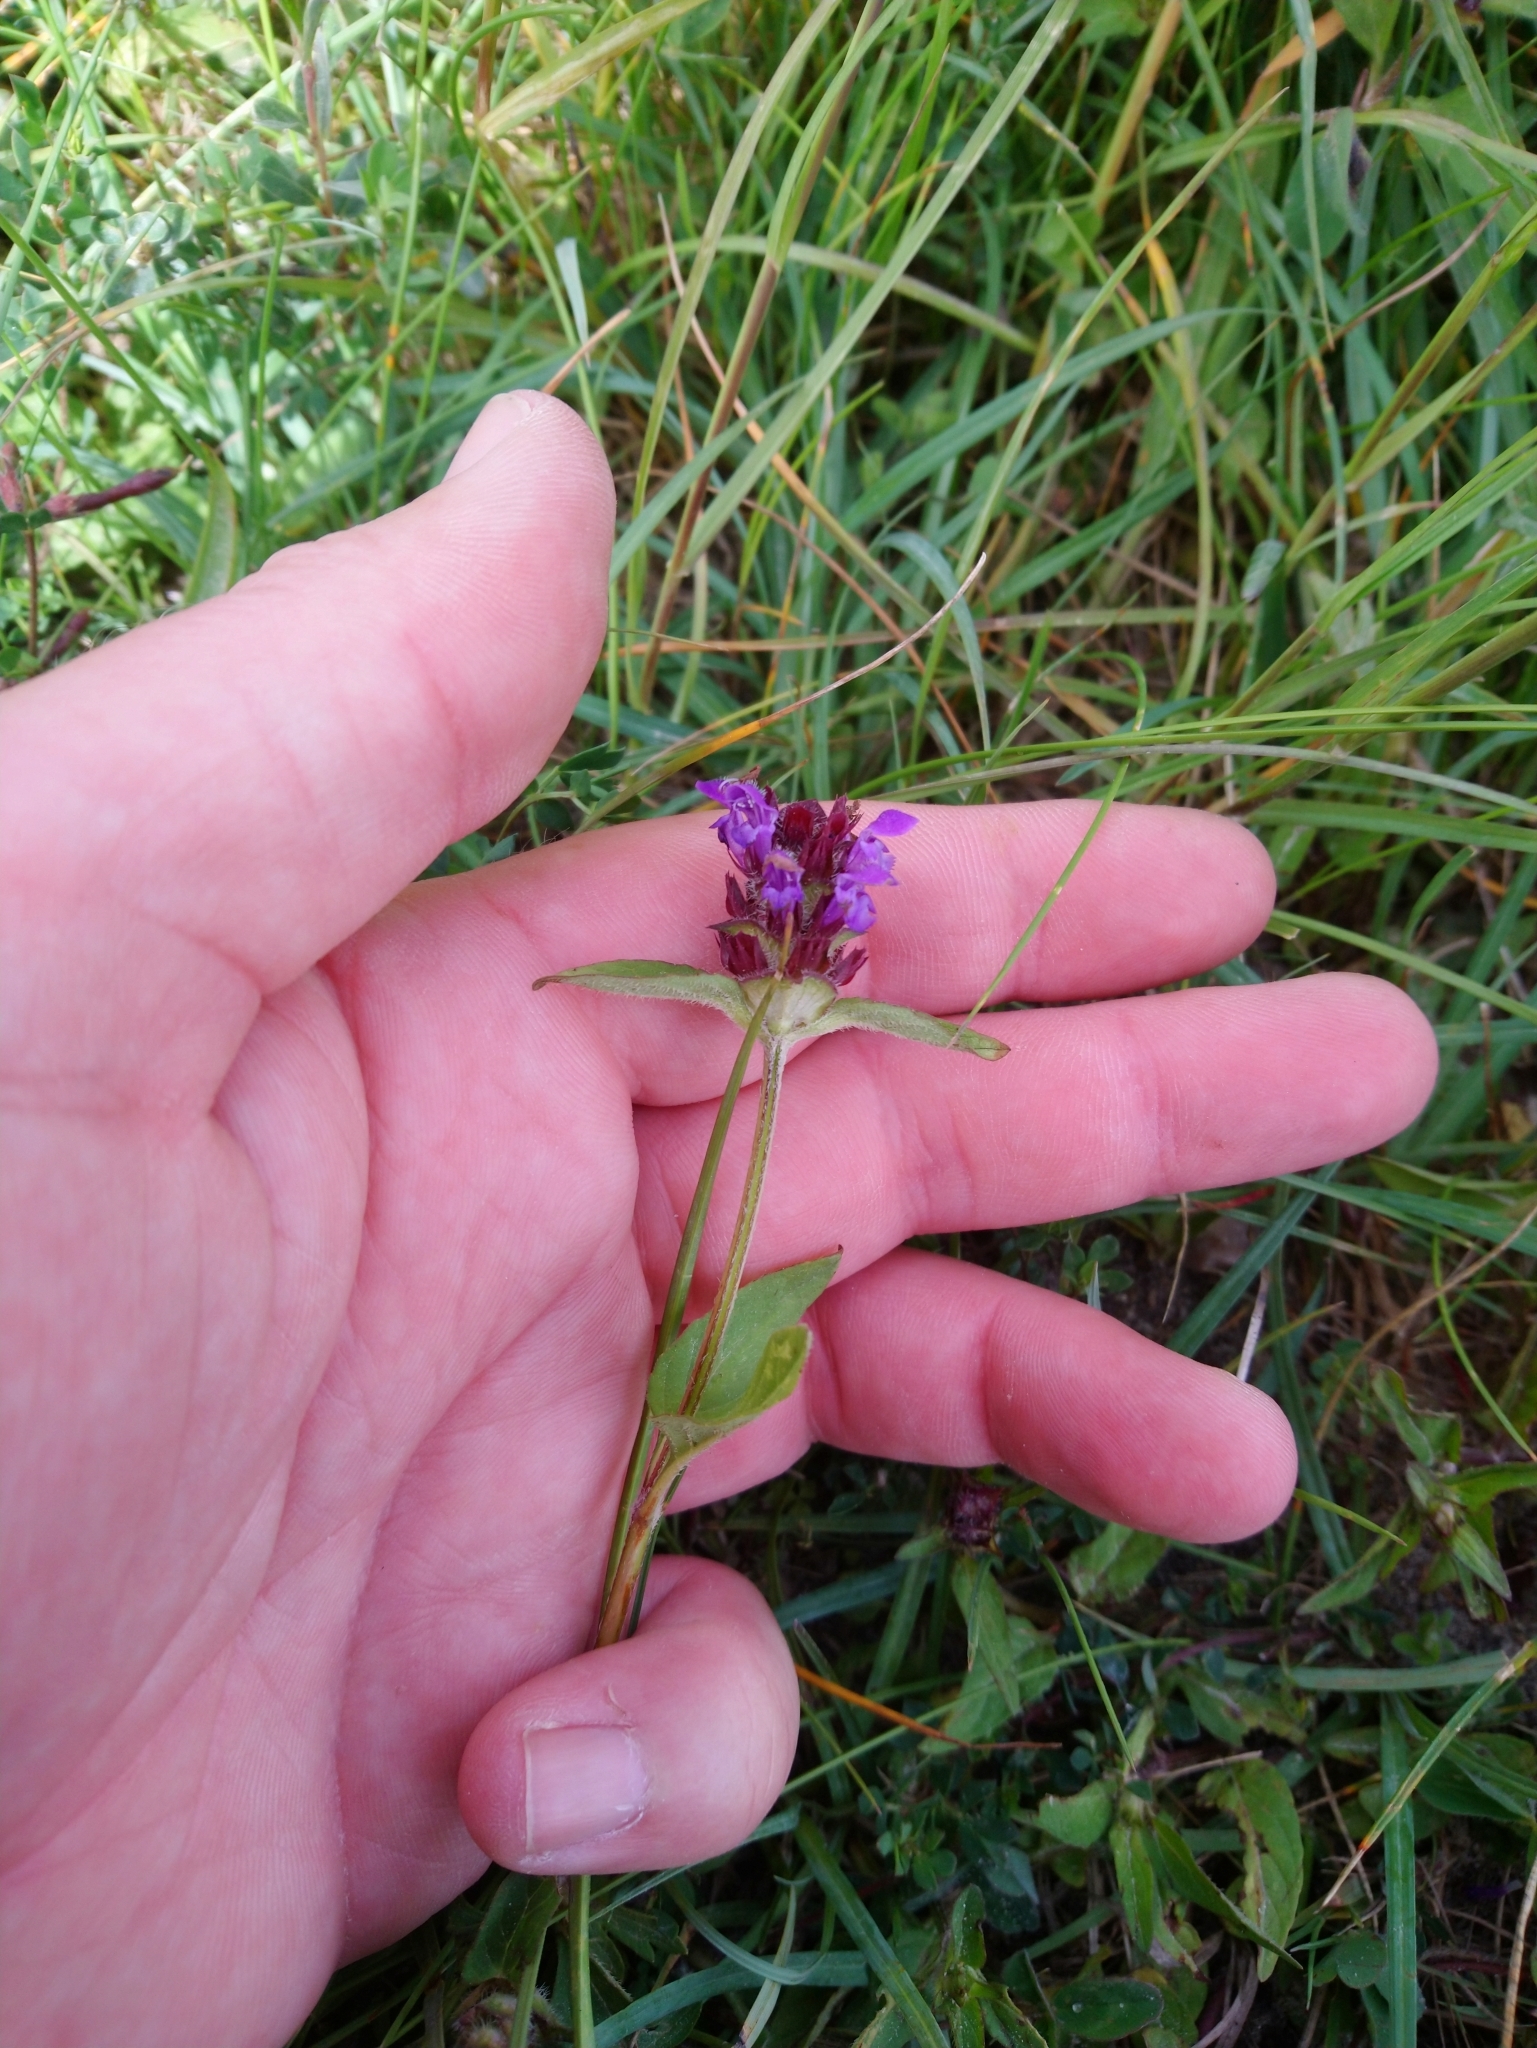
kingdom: Plantae
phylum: Tracheophyta
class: Magnoliopsida
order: Lamiales
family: Lamiaceae
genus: Prunella
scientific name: Prunella vulgaris
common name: Heal-all
